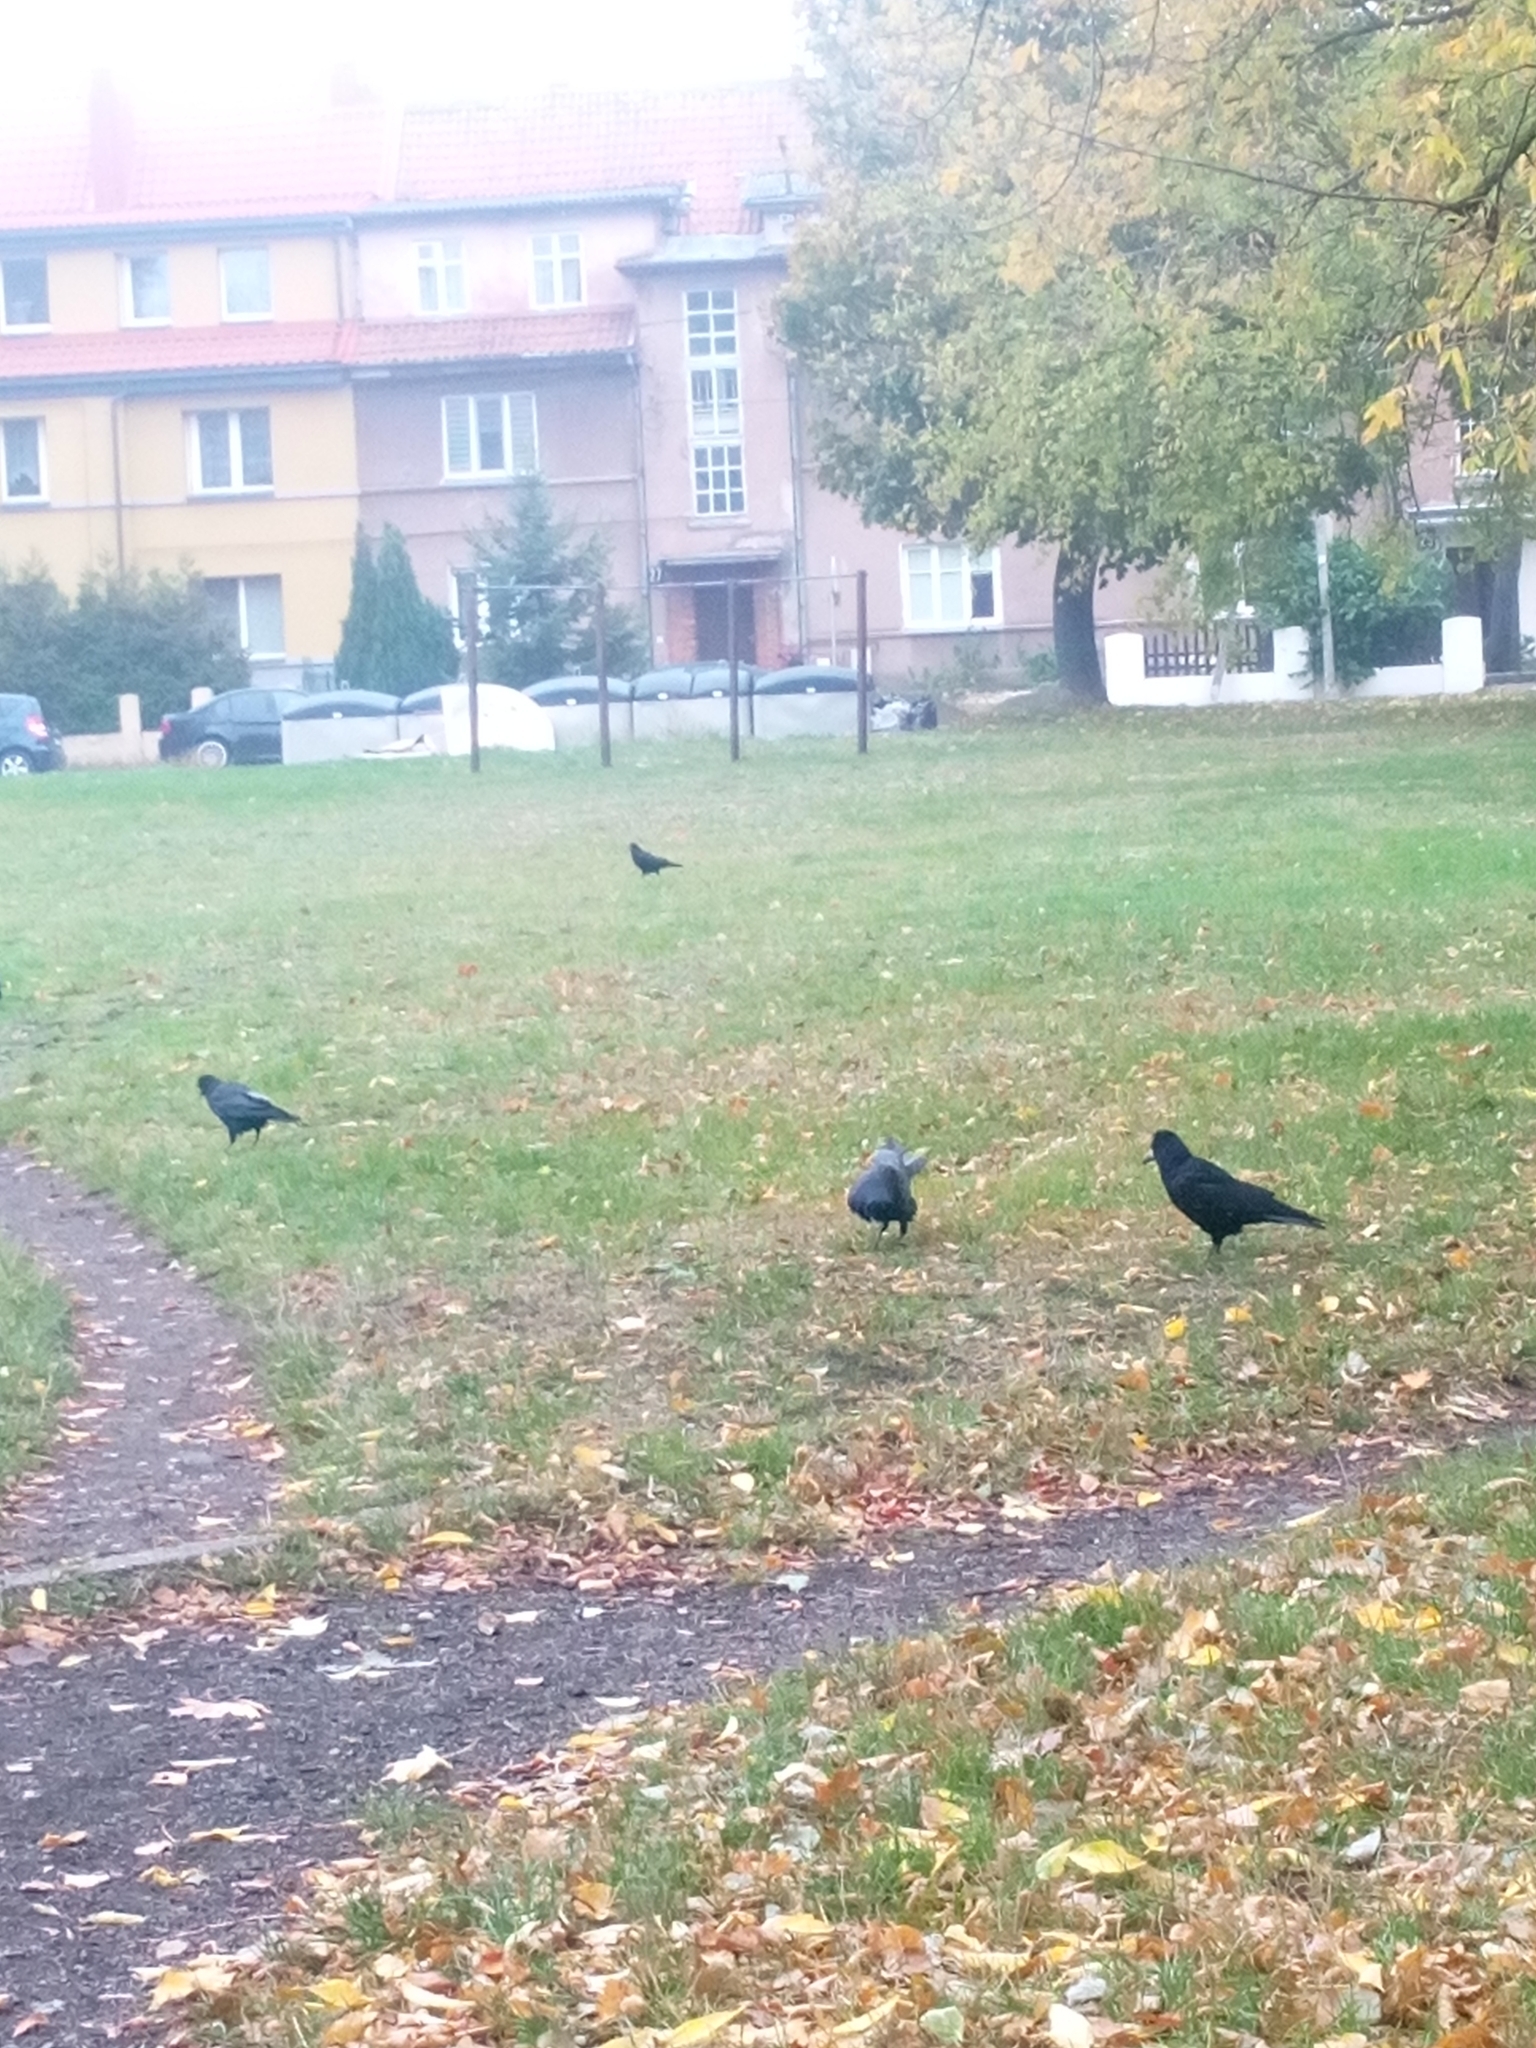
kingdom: Animalia
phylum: Chordata
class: Aves
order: Passeriformes
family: Corvidae
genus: Corvus
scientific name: Corvus frugilegus
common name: Rook
